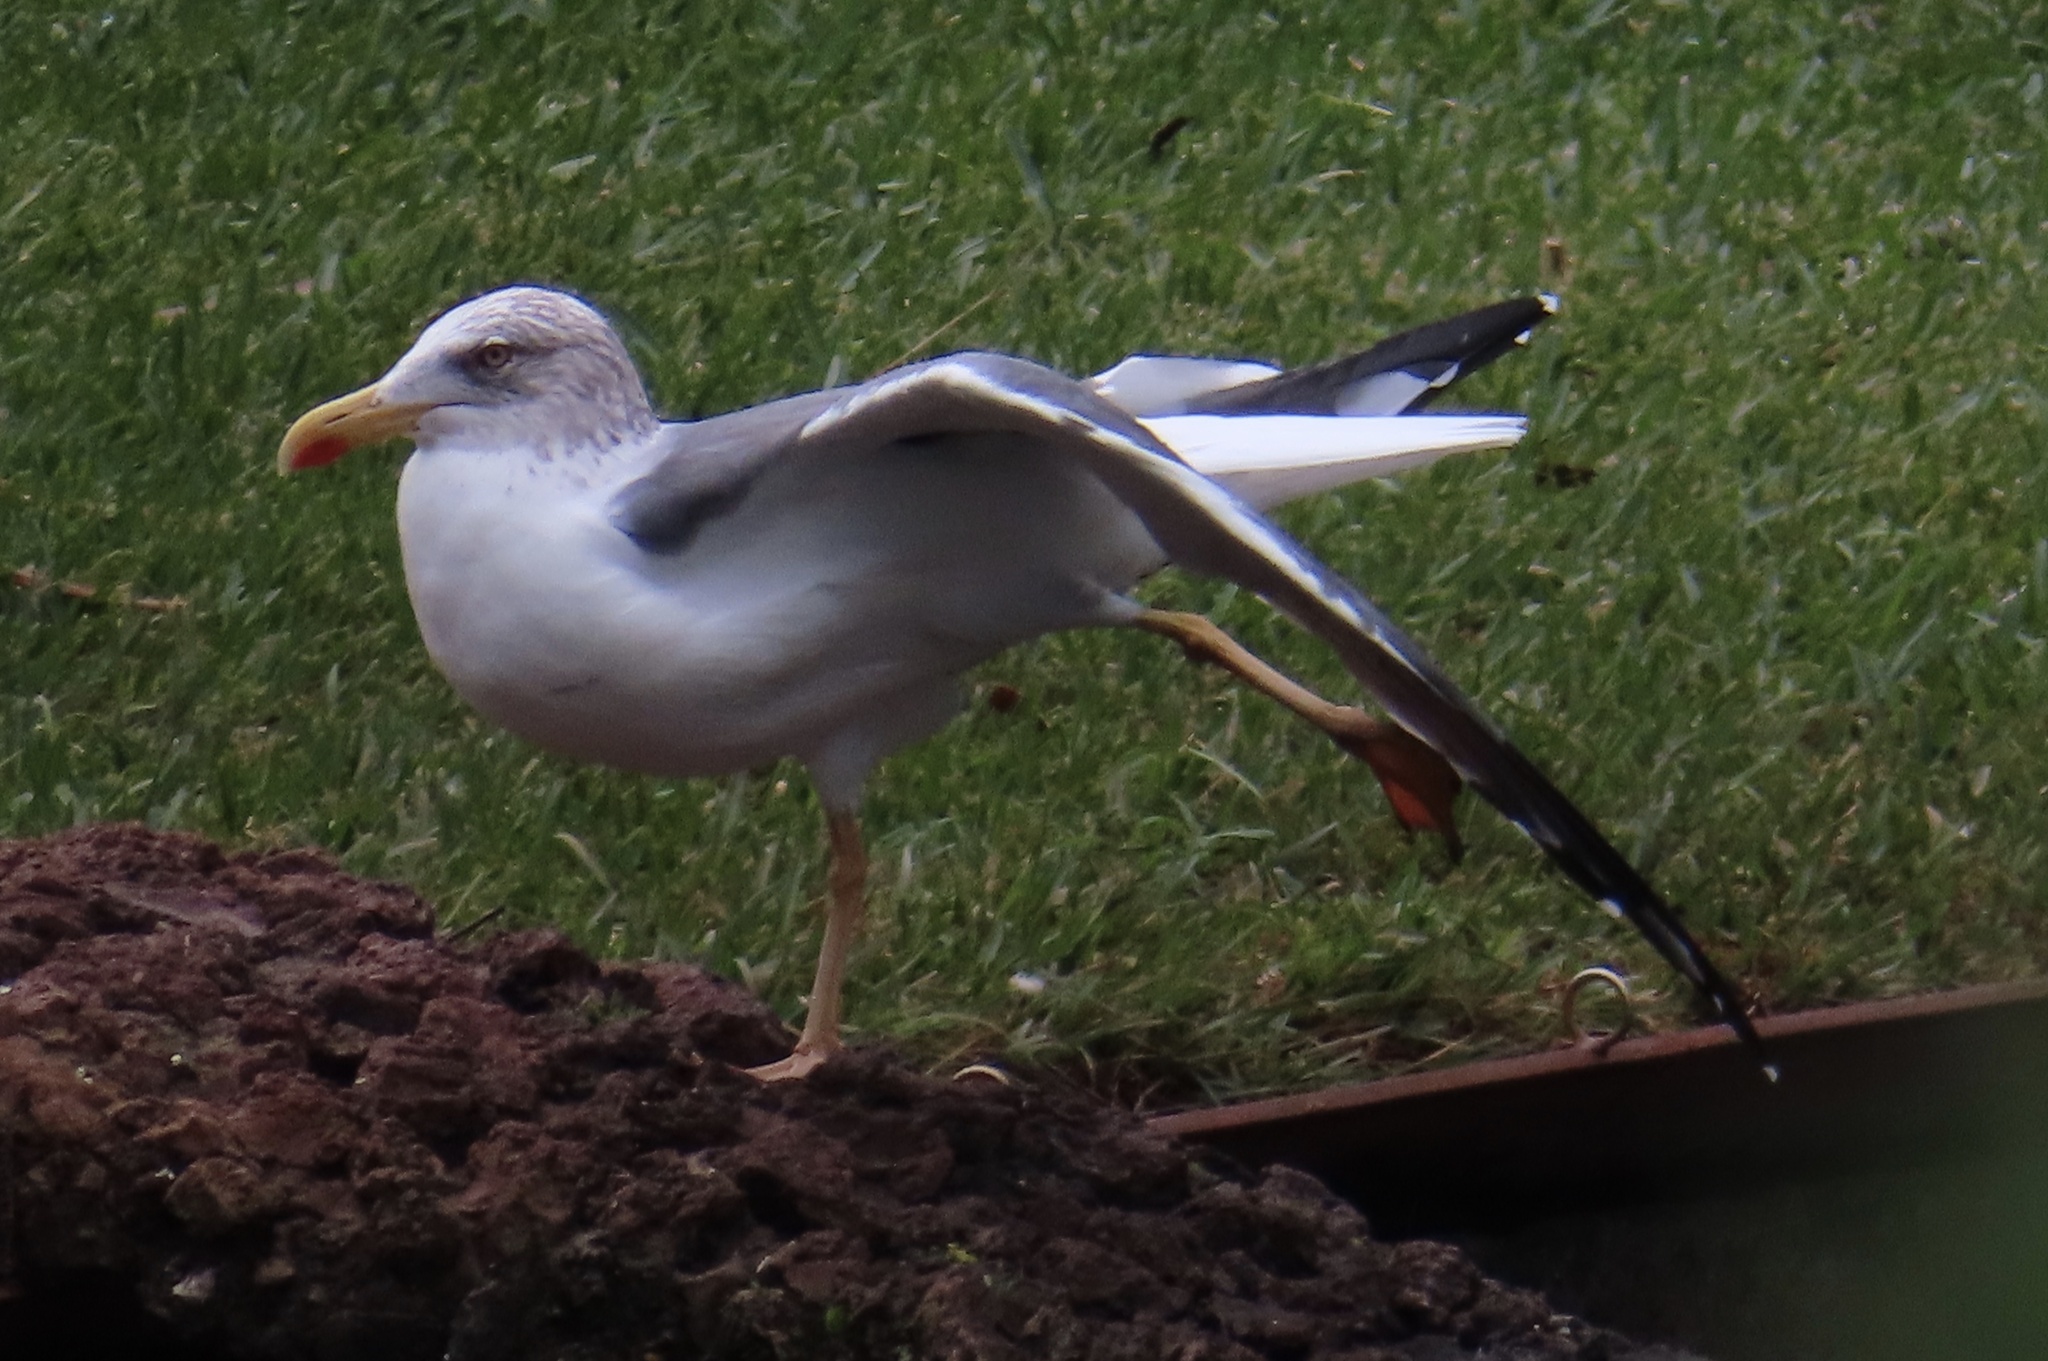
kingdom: Animalia
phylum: Chordata
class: Aves
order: Charadriiformes
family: Laridae
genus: Larus
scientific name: Larus michahellis
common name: Yellow-legged gull
